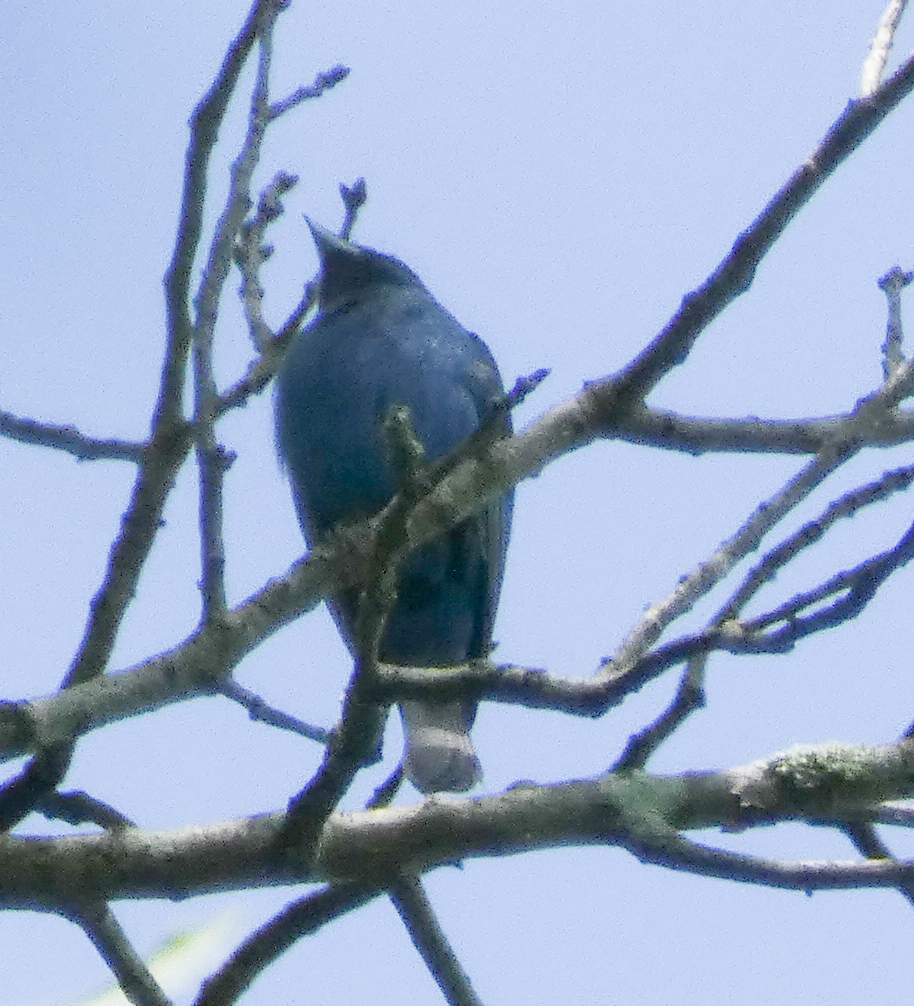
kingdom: Animalia
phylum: Chordata
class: Aves
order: Passeriformes
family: Cardinalidae
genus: Passerina
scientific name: Passerina cyanea
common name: Indigo bunting
